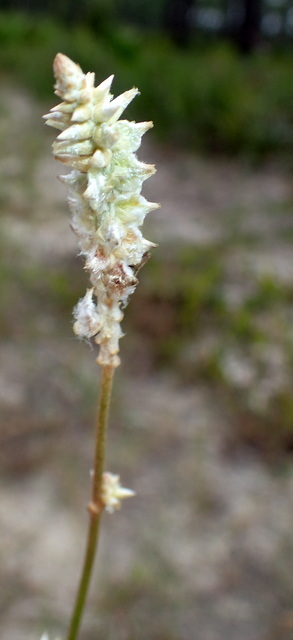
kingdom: Plantae
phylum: Tracheophyta
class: Magnoliopsida
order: Caryophyllales
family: Amaranthaceae
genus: Froelichia
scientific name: Froelichia floridana
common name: Florida snake-cotton
